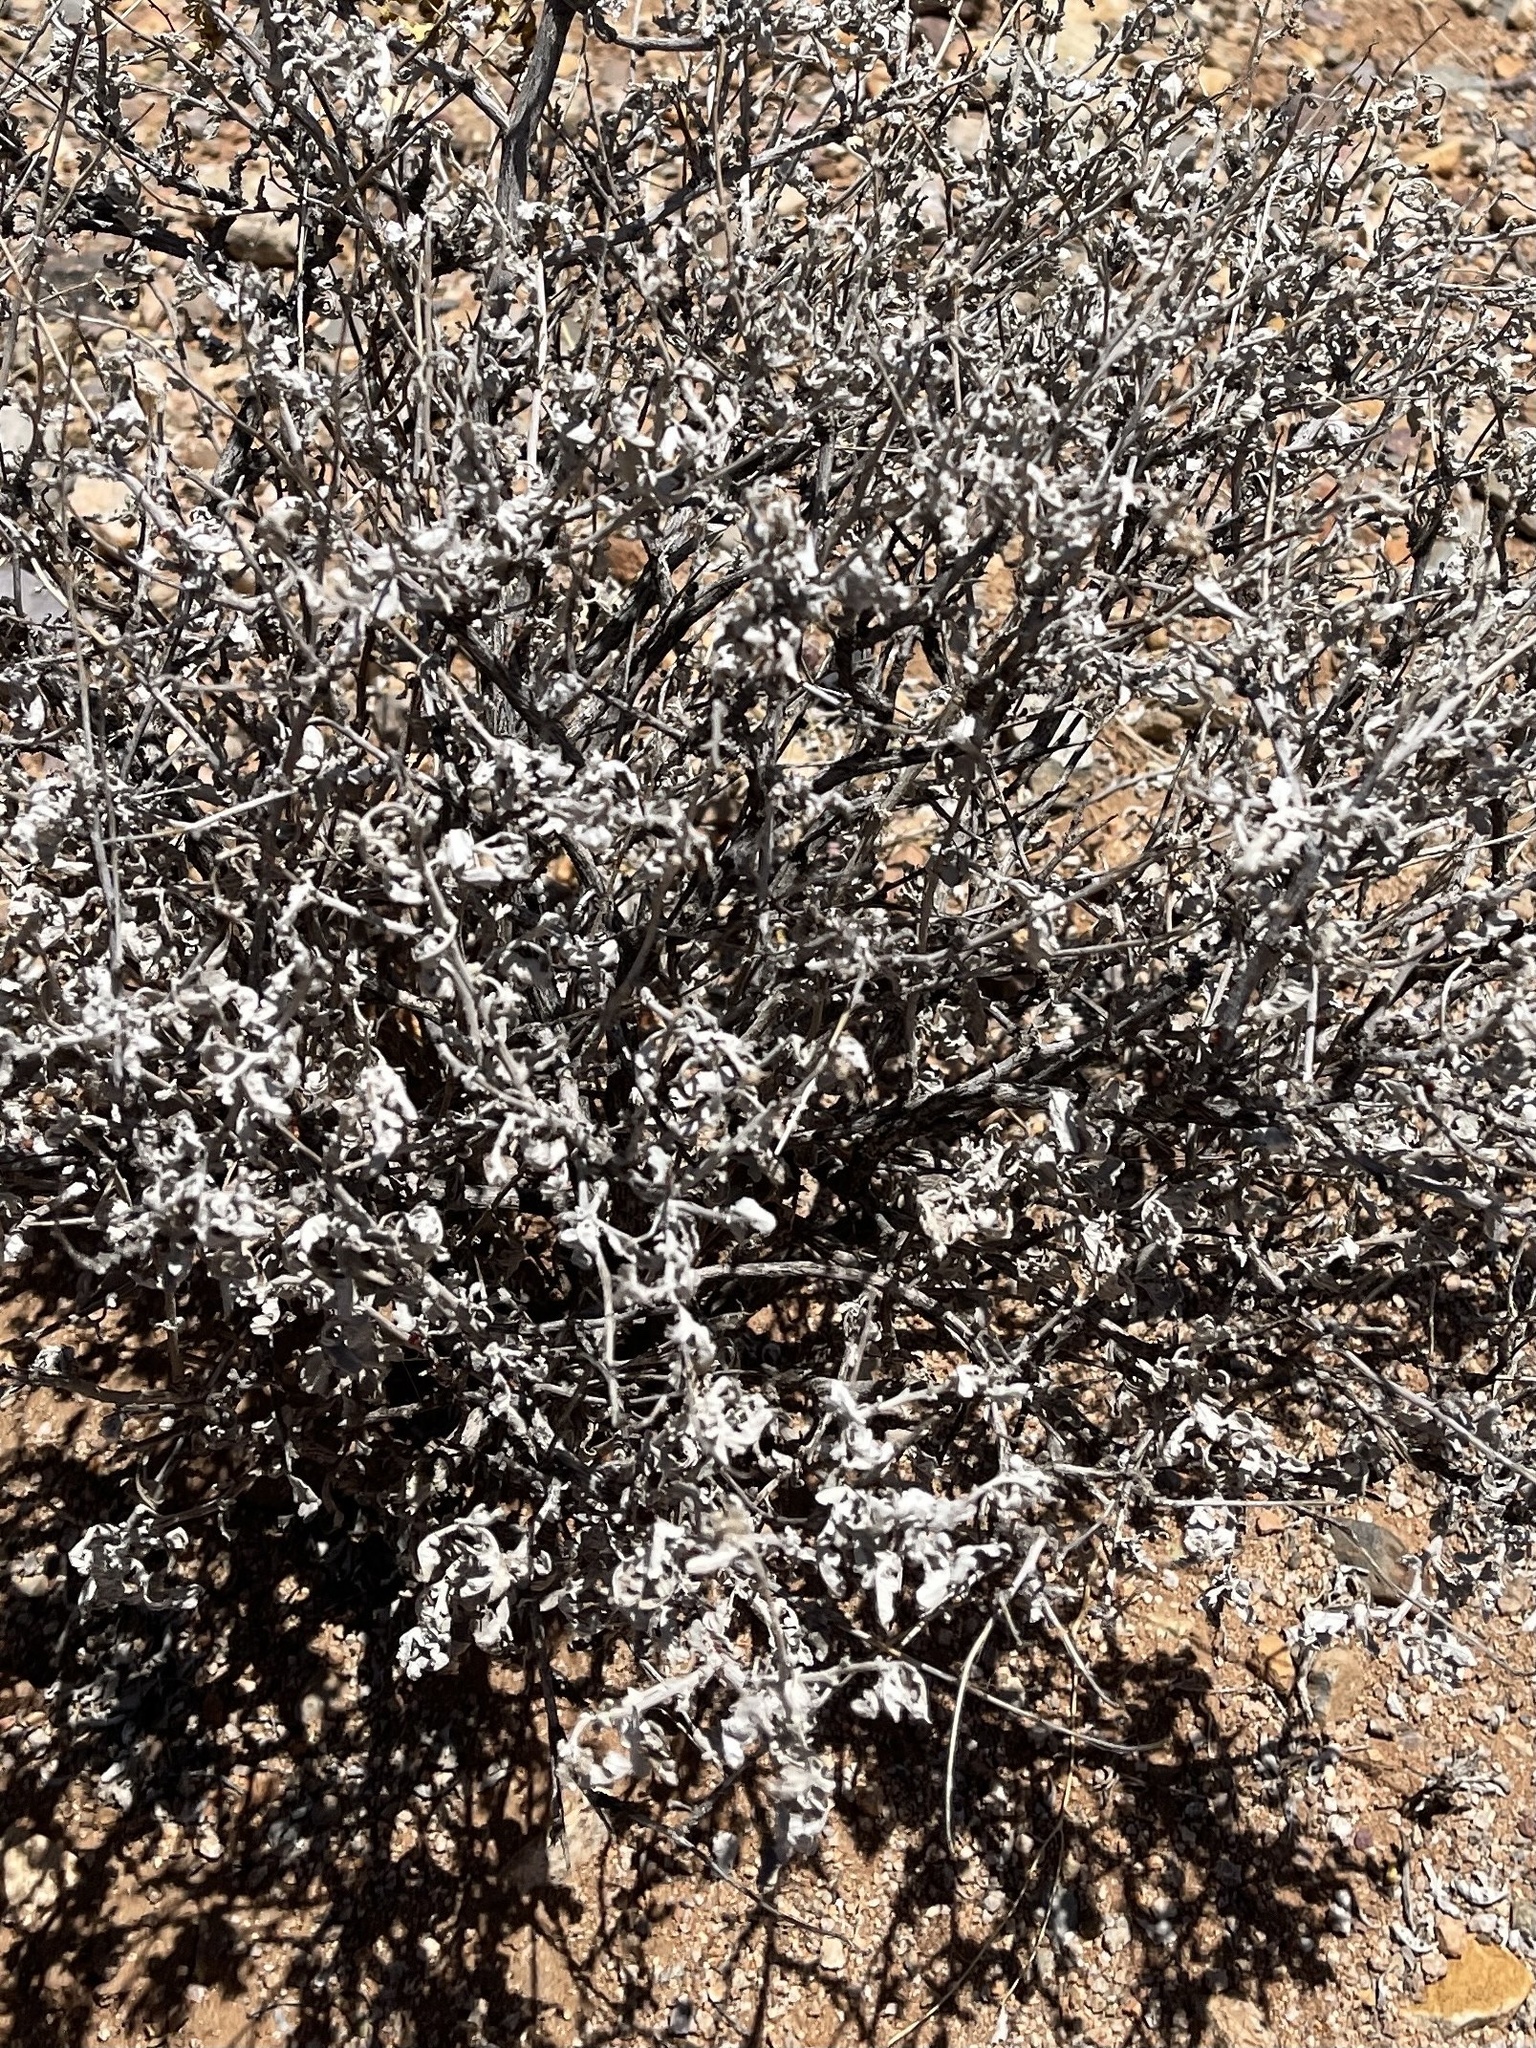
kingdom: Plantae
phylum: Tracheophyta
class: Magnoliopsida
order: Asterales
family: Asteraceae
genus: Parthenium
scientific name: Parthenium incanum
